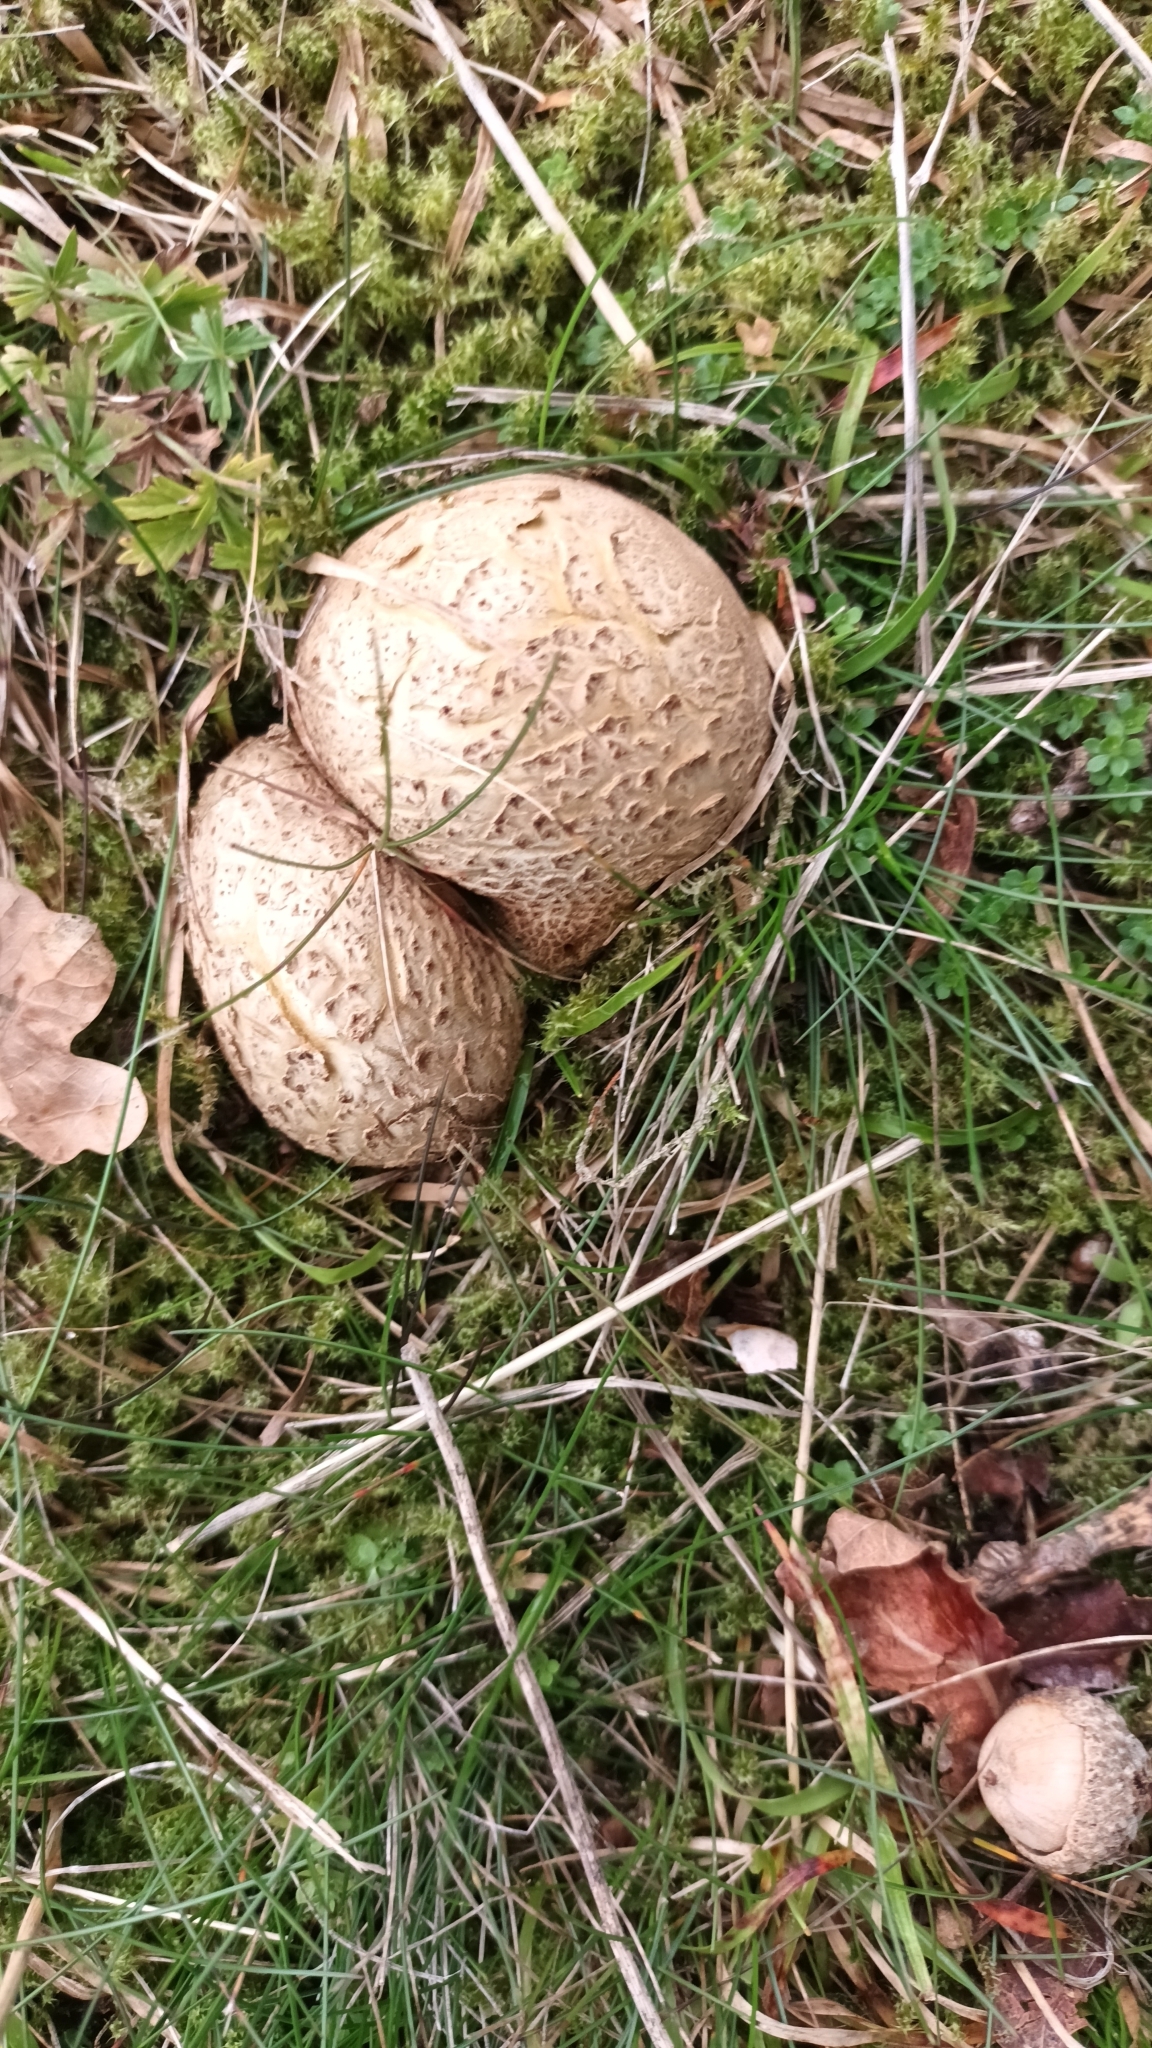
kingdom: Fungi
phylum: Basidiomycota
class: Agaricomycetes
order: Boletales
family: Sclerodermataceae
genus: Scleroderma
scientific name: Scleroderma citrinum
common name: Common earthball
